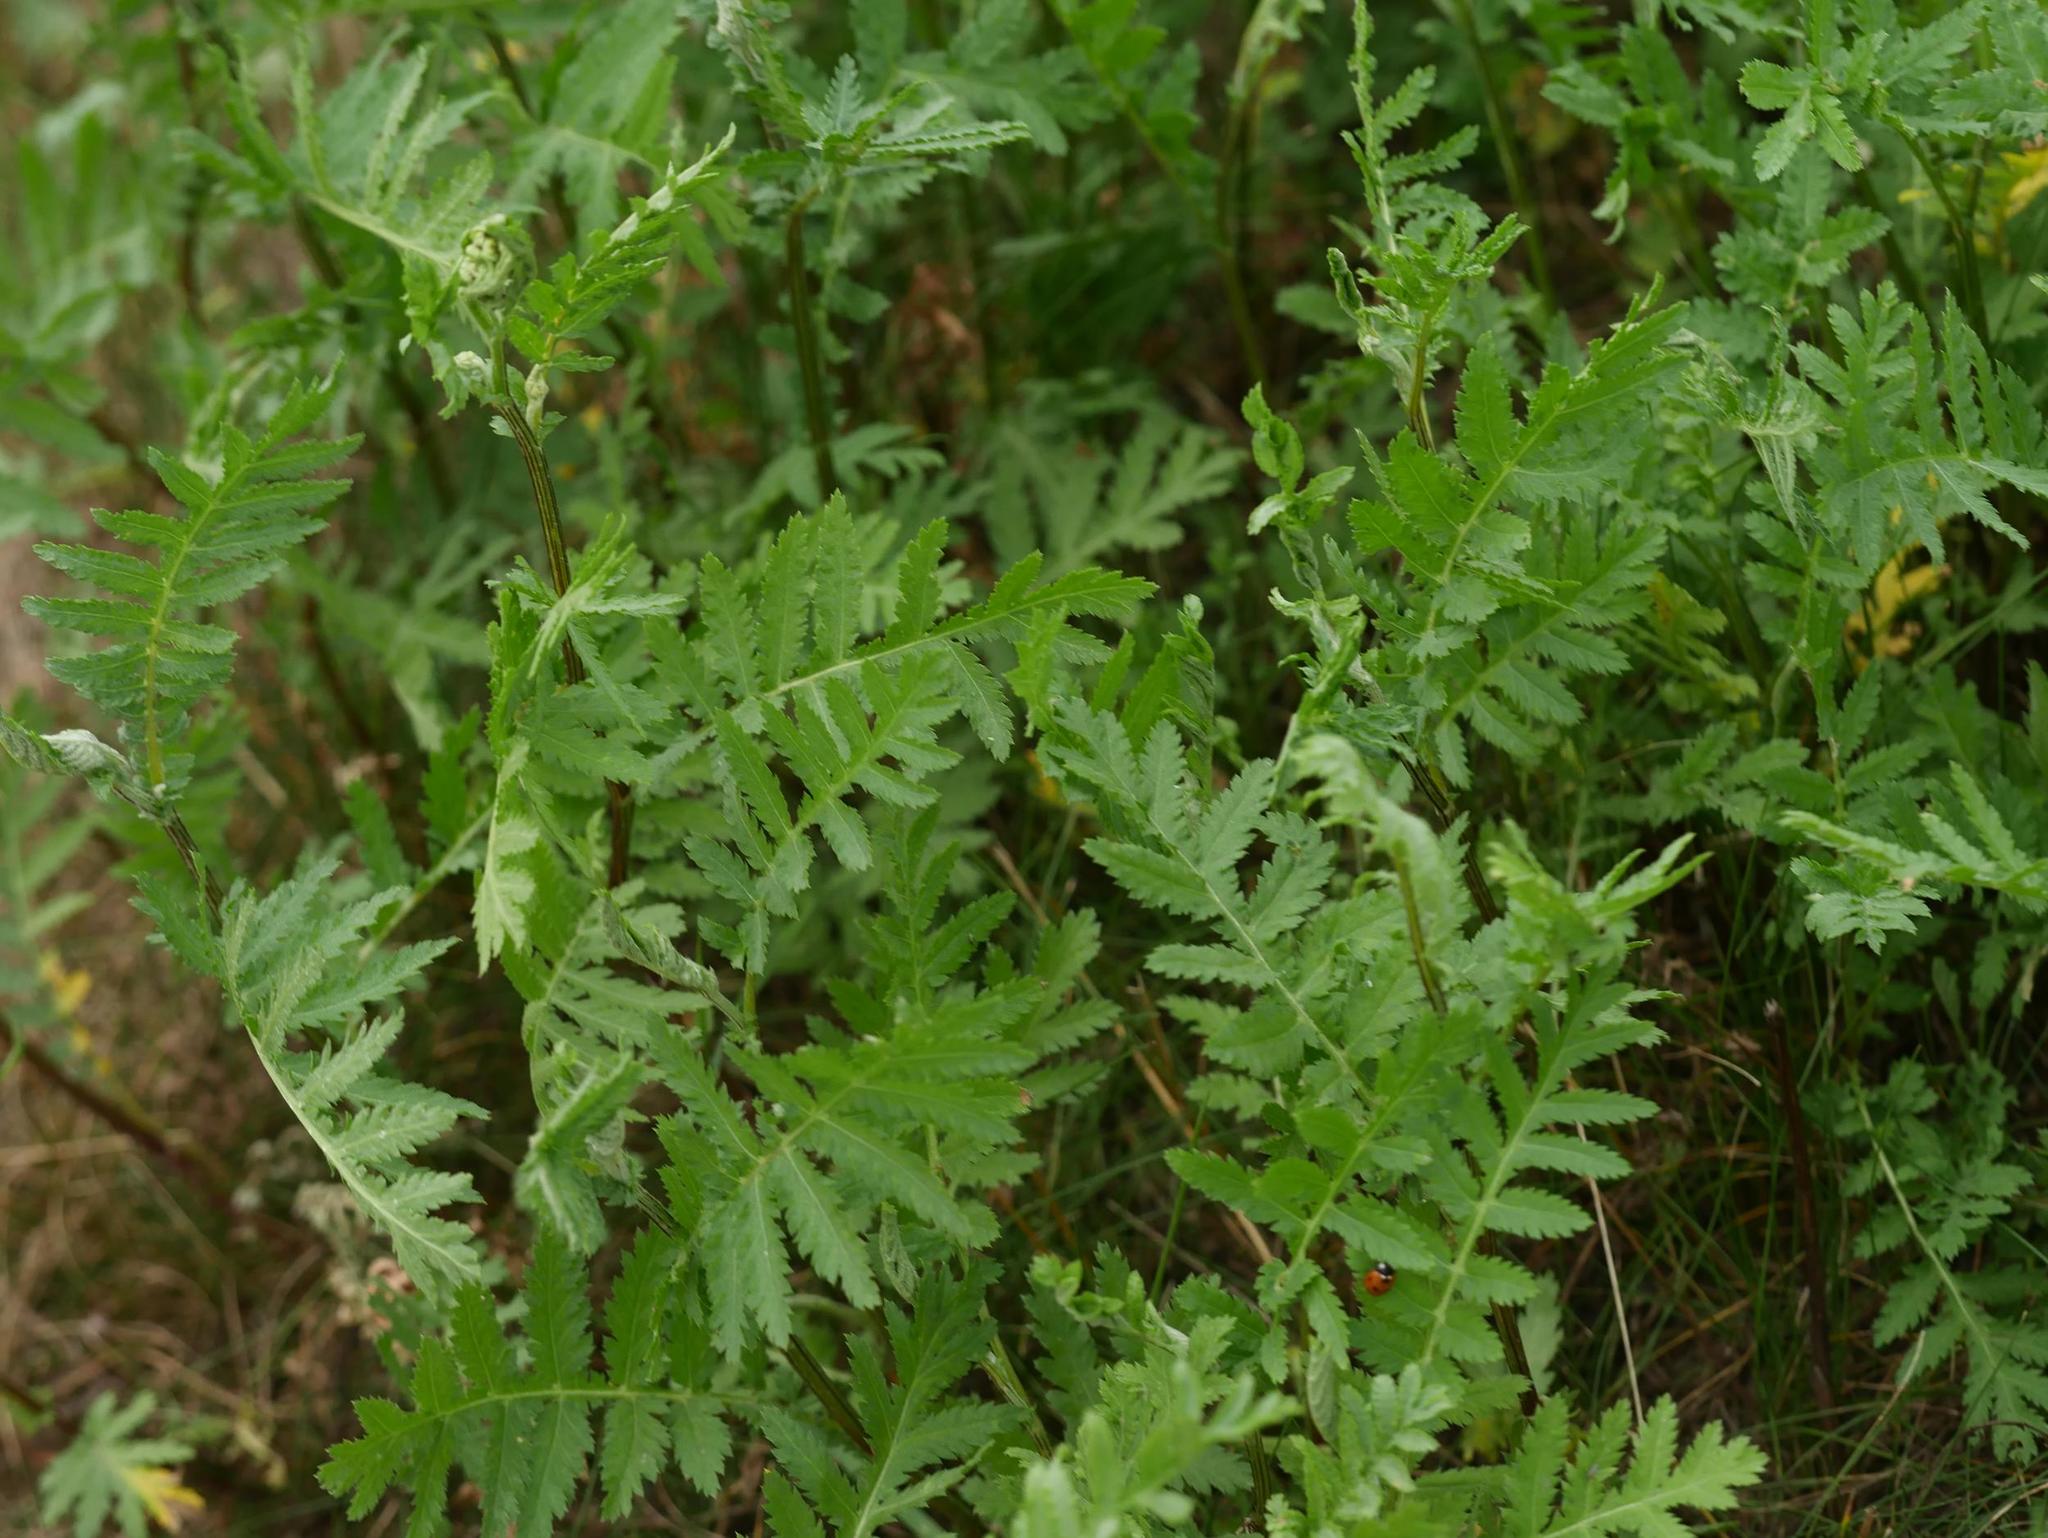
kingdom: Plantae
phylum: Tracheophyta
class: Magnoliopsida
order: Asterales
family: Asteraceae
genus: Tanacetum
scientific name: Tanacetum vulgare
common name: Common tansy
